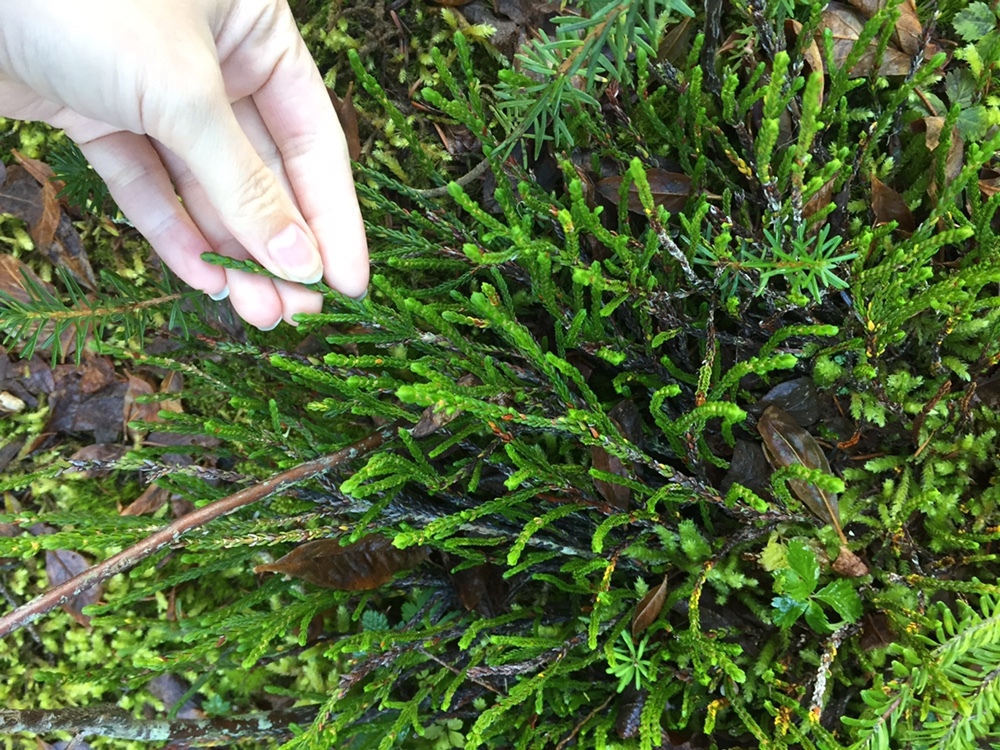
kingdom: Plantae
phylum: Tracheophyta
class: Magnoliopsida
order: Ericales
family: Ericaceae
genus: Cassiope
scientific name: Cassiope mertensiana
